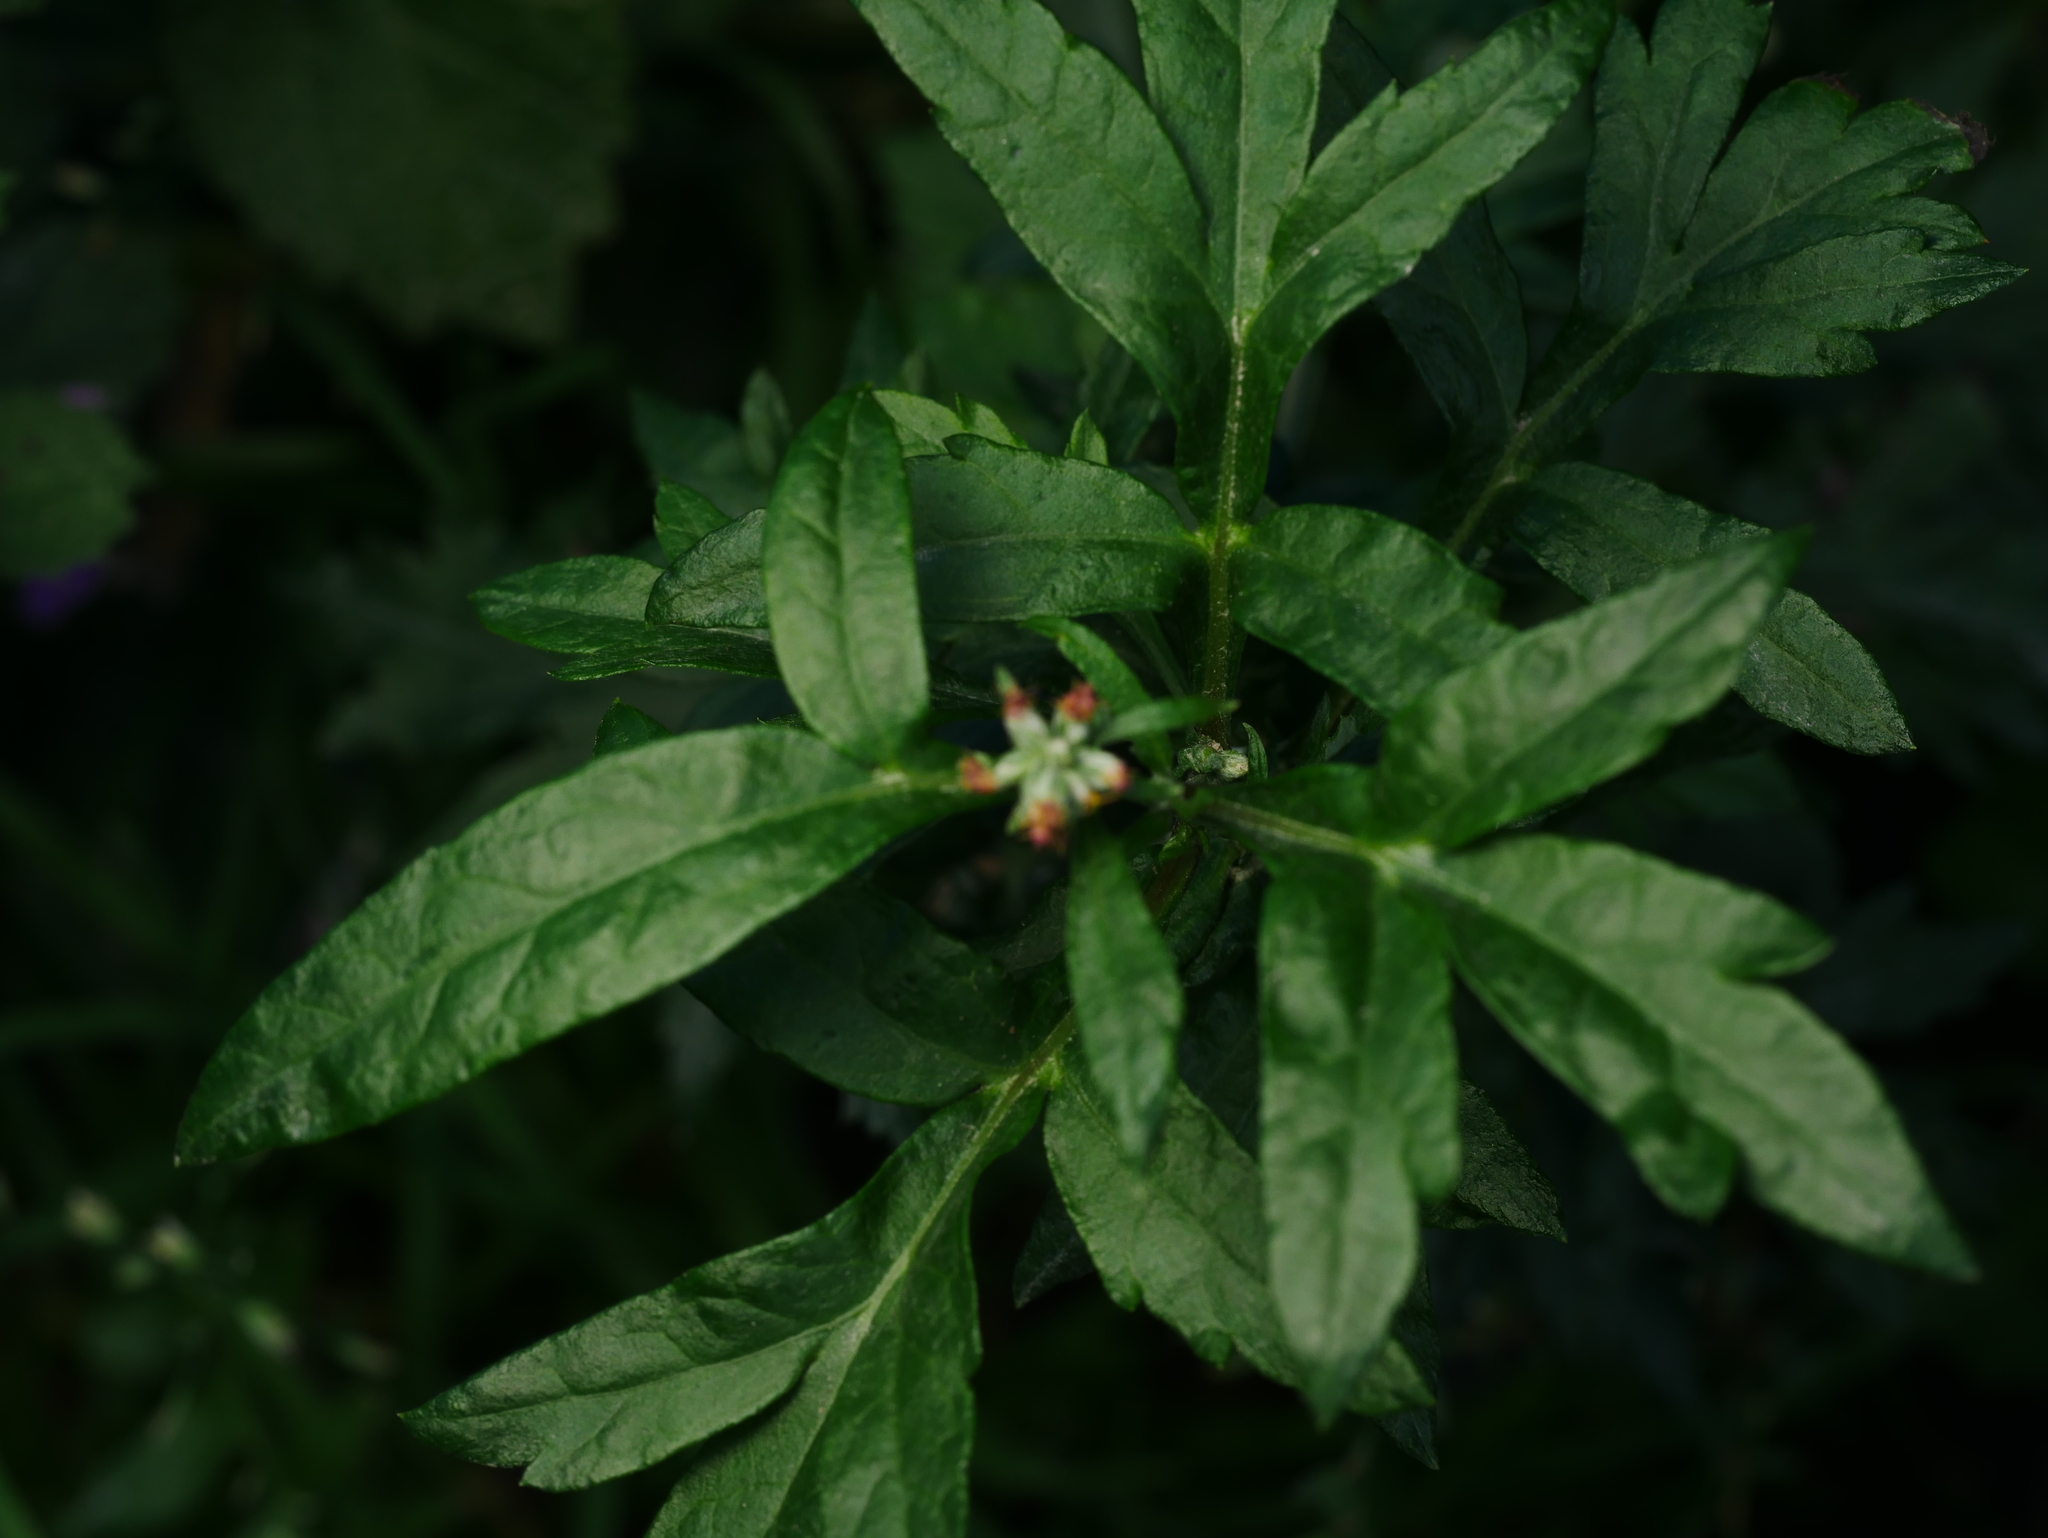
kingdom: Plantae
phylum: Tracheophyta
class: Magnoliopsida
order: Asterales
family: Asteraceae
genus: Artemisia
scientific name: Artemisia vulgaris
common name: Mugwort
